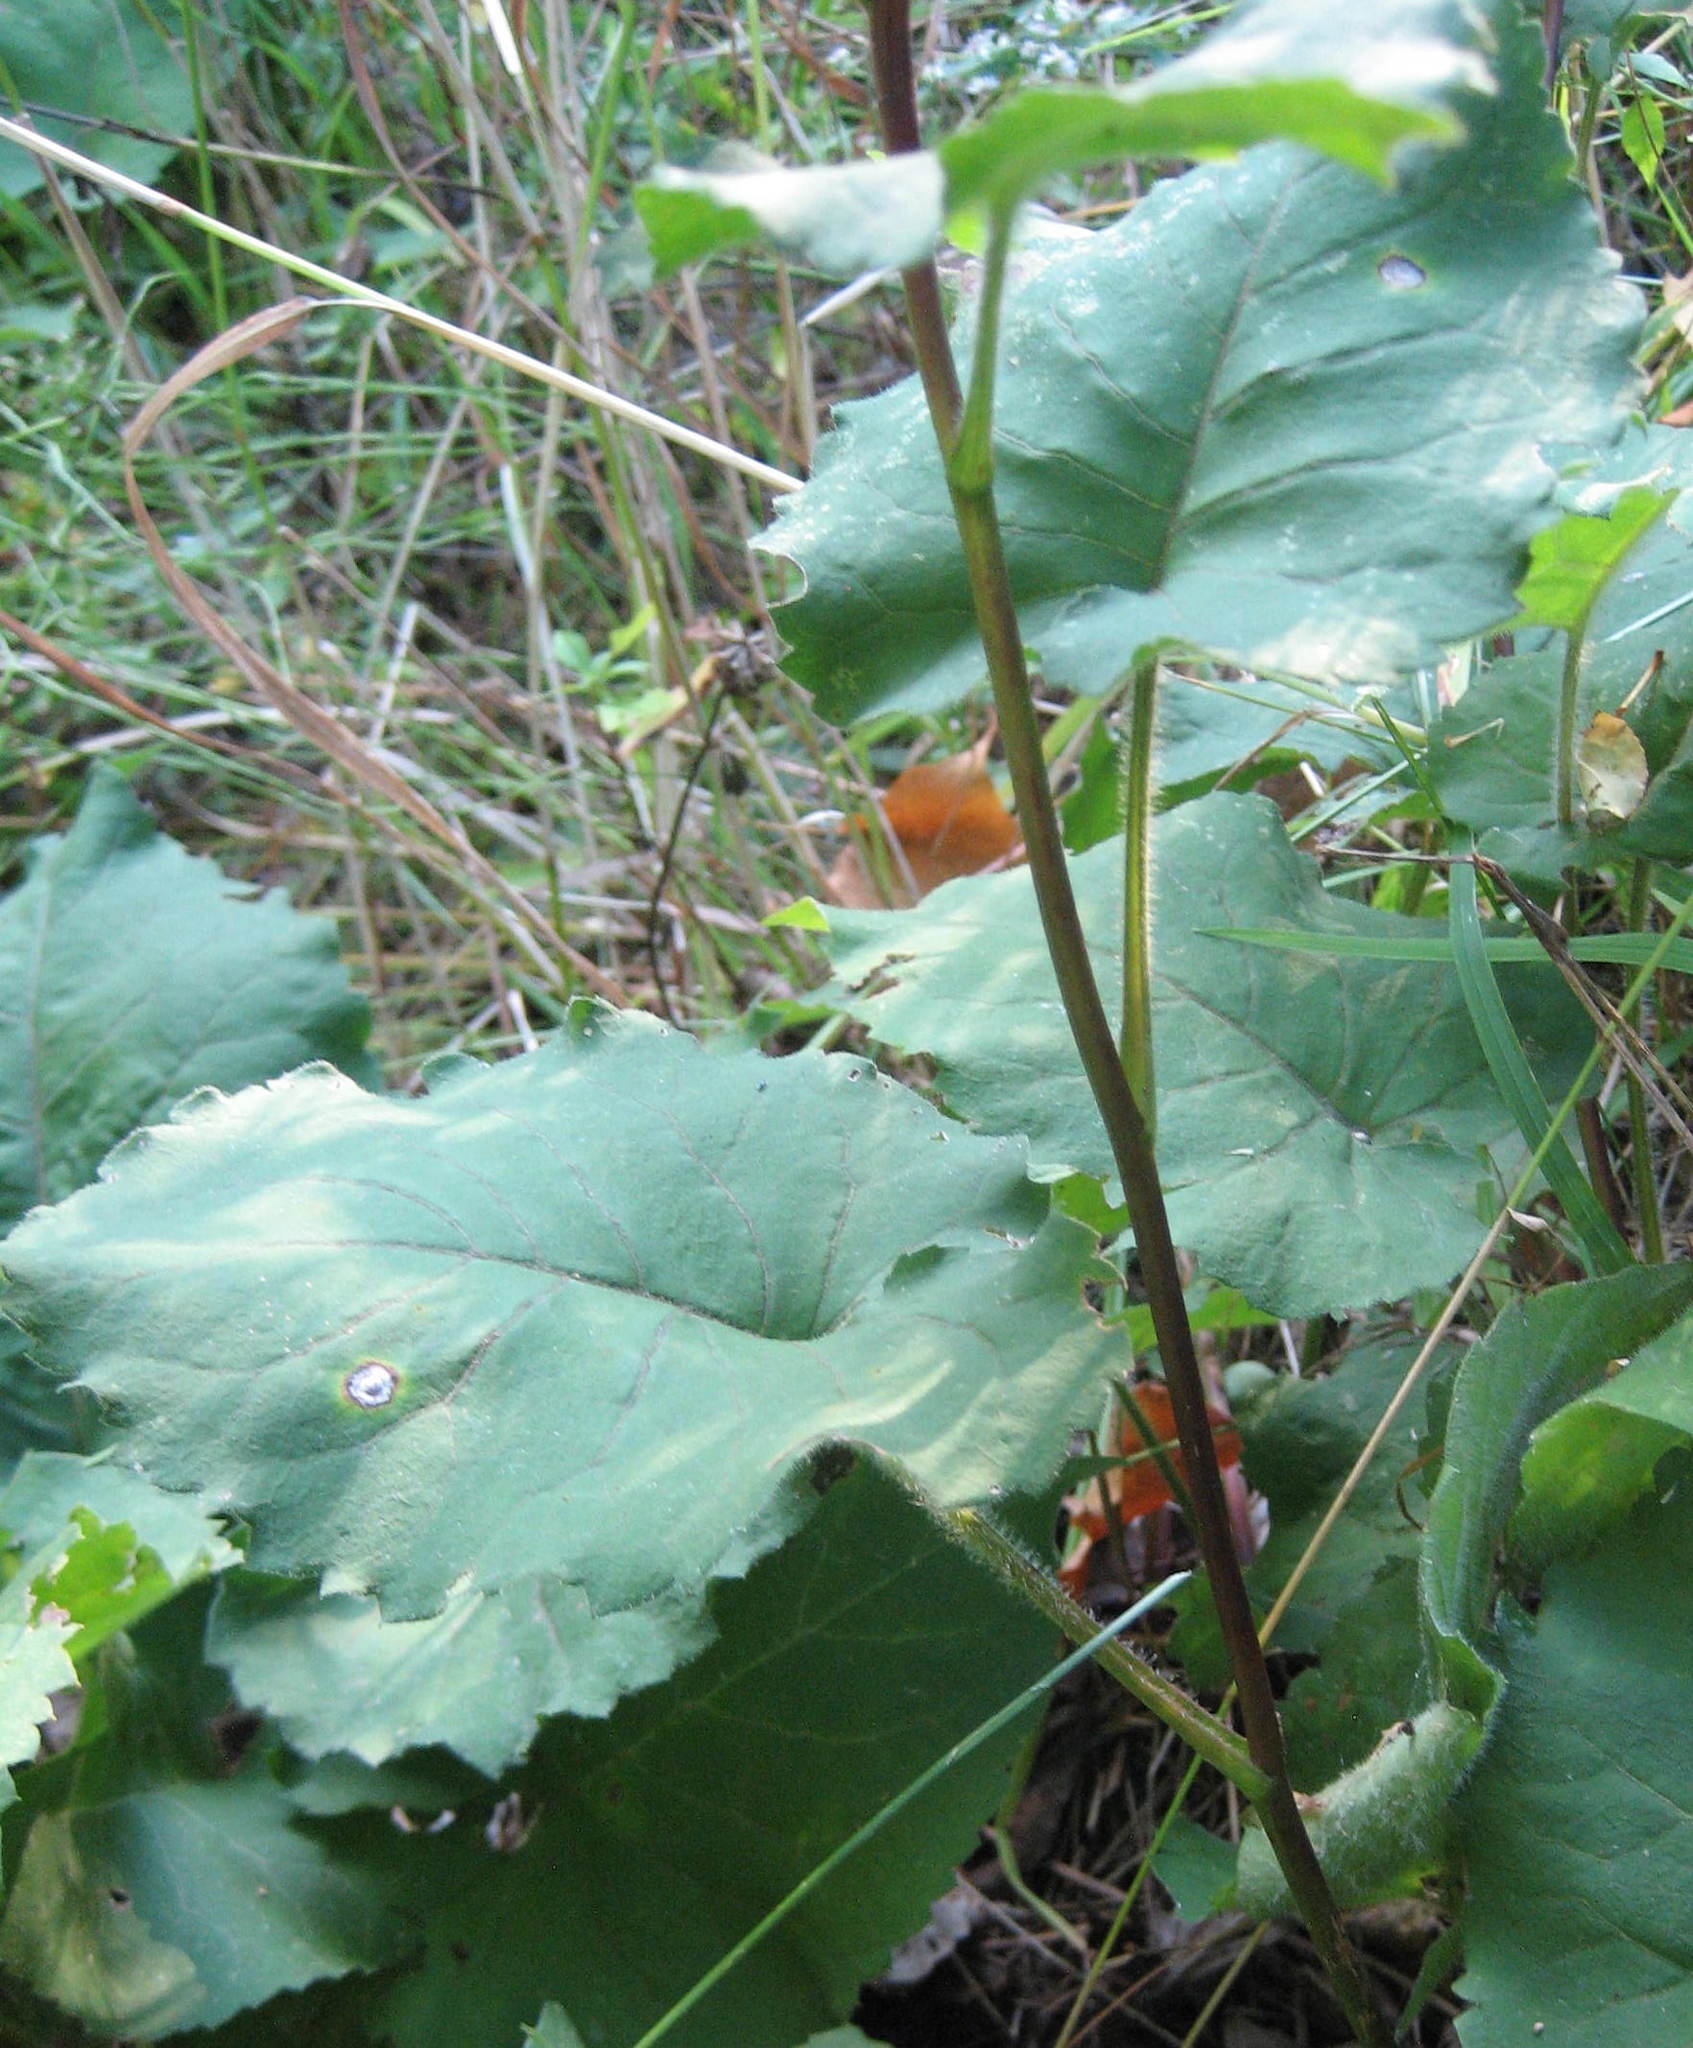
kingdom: Plantae
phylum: Tracheophyta
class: Magnoliopsida
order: Asterales
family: Asteraceae
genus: Eurybia
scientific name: Eurybia macrophylla
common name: Big-leaved aster
